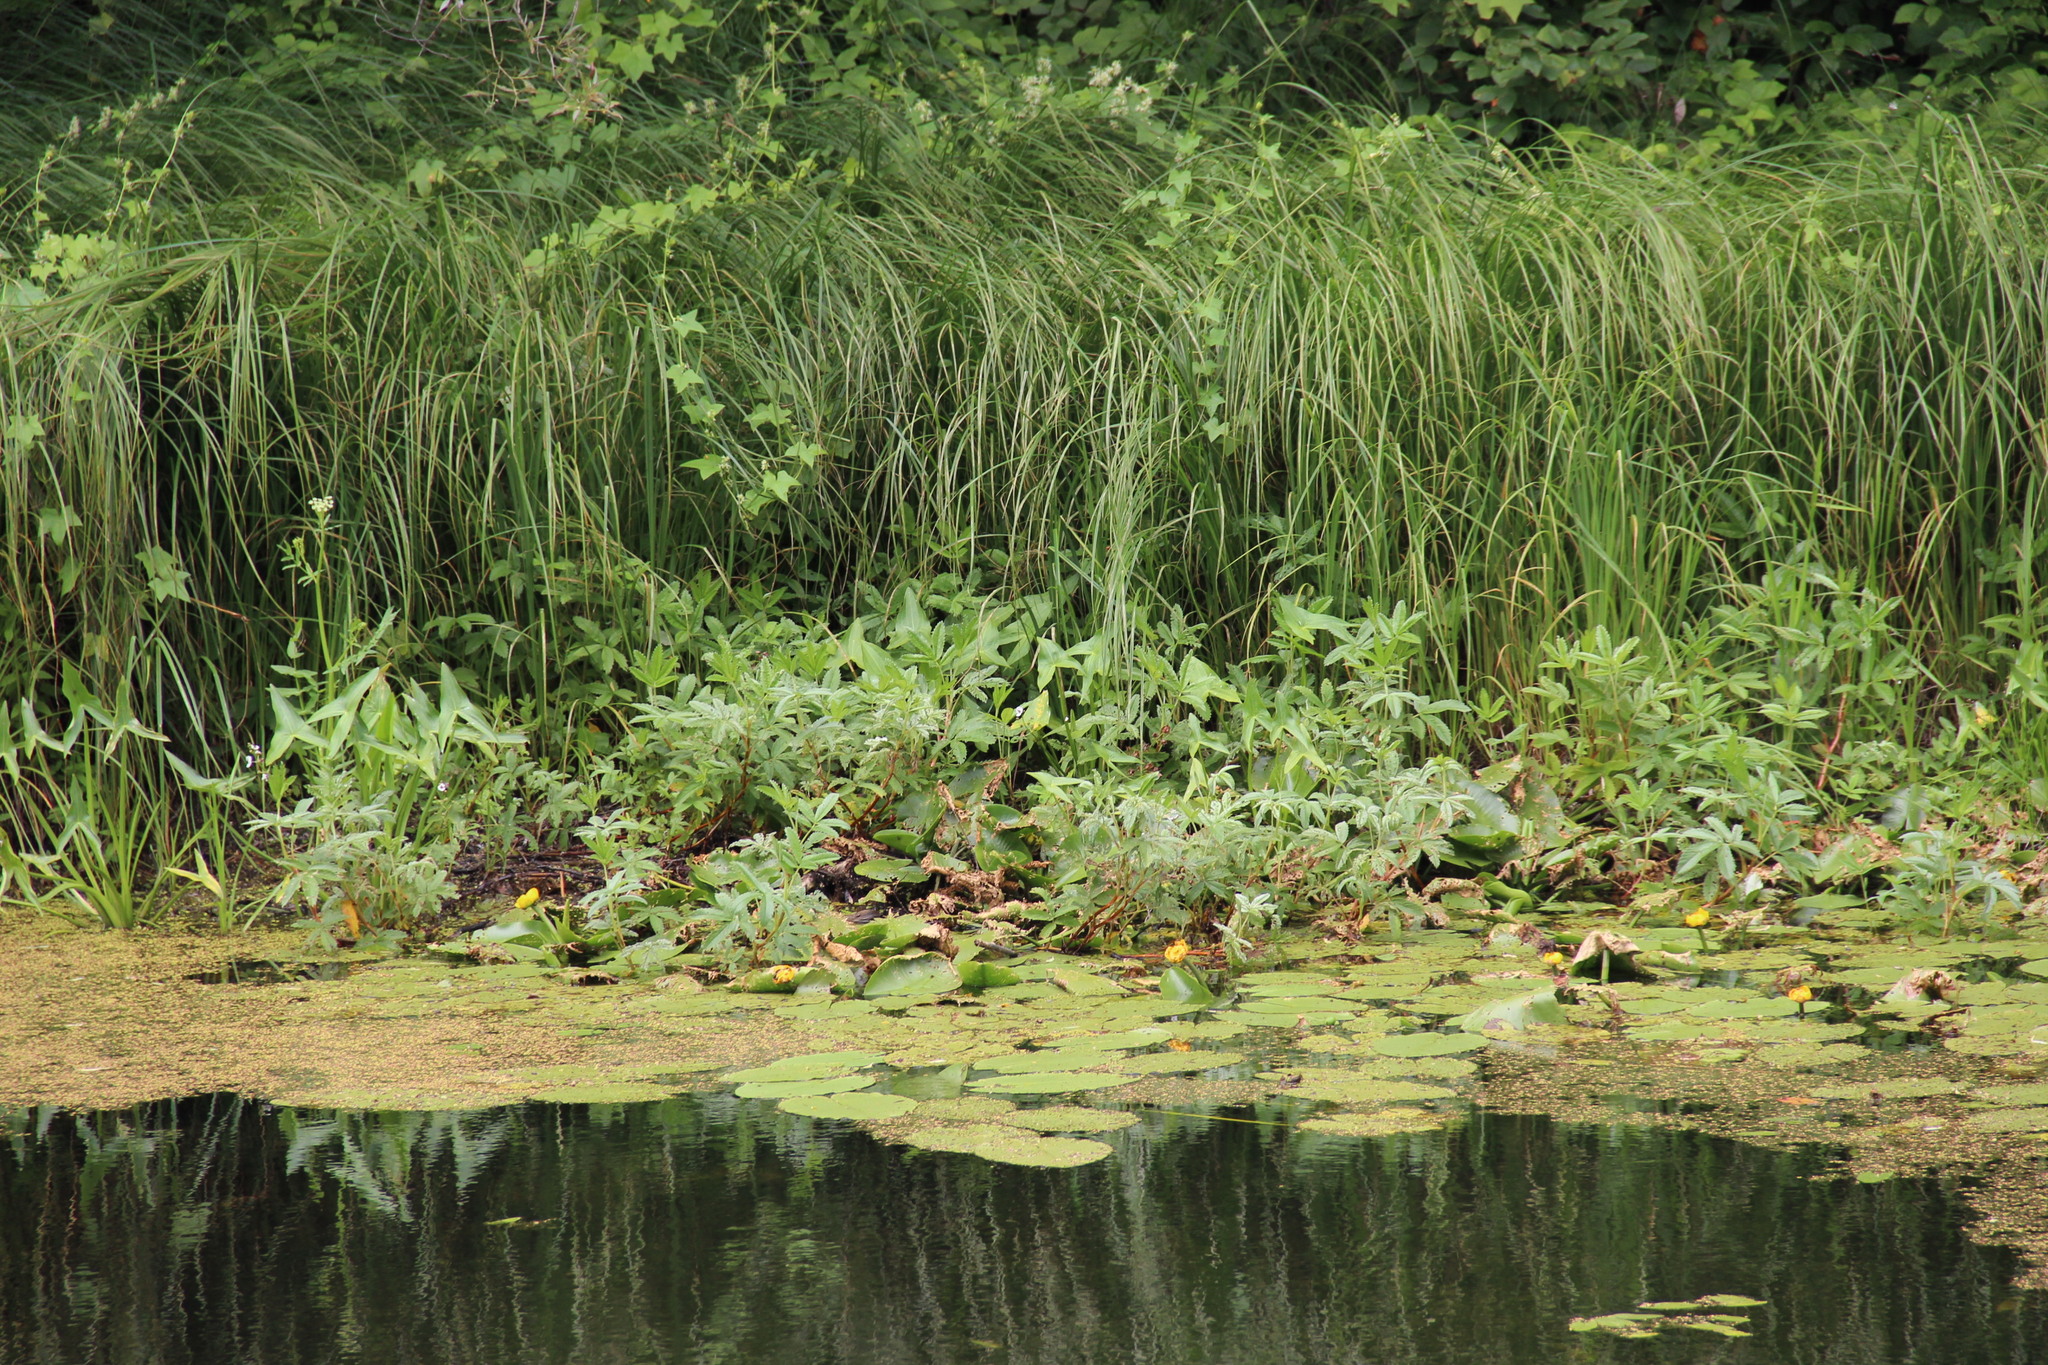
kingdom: Plantae
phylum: Tracheophyta
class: Magnoliopsida
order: Rosales
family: Rosaceae
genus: Comarum
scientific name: Comarum palustre
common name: Marsh cinquefoil
